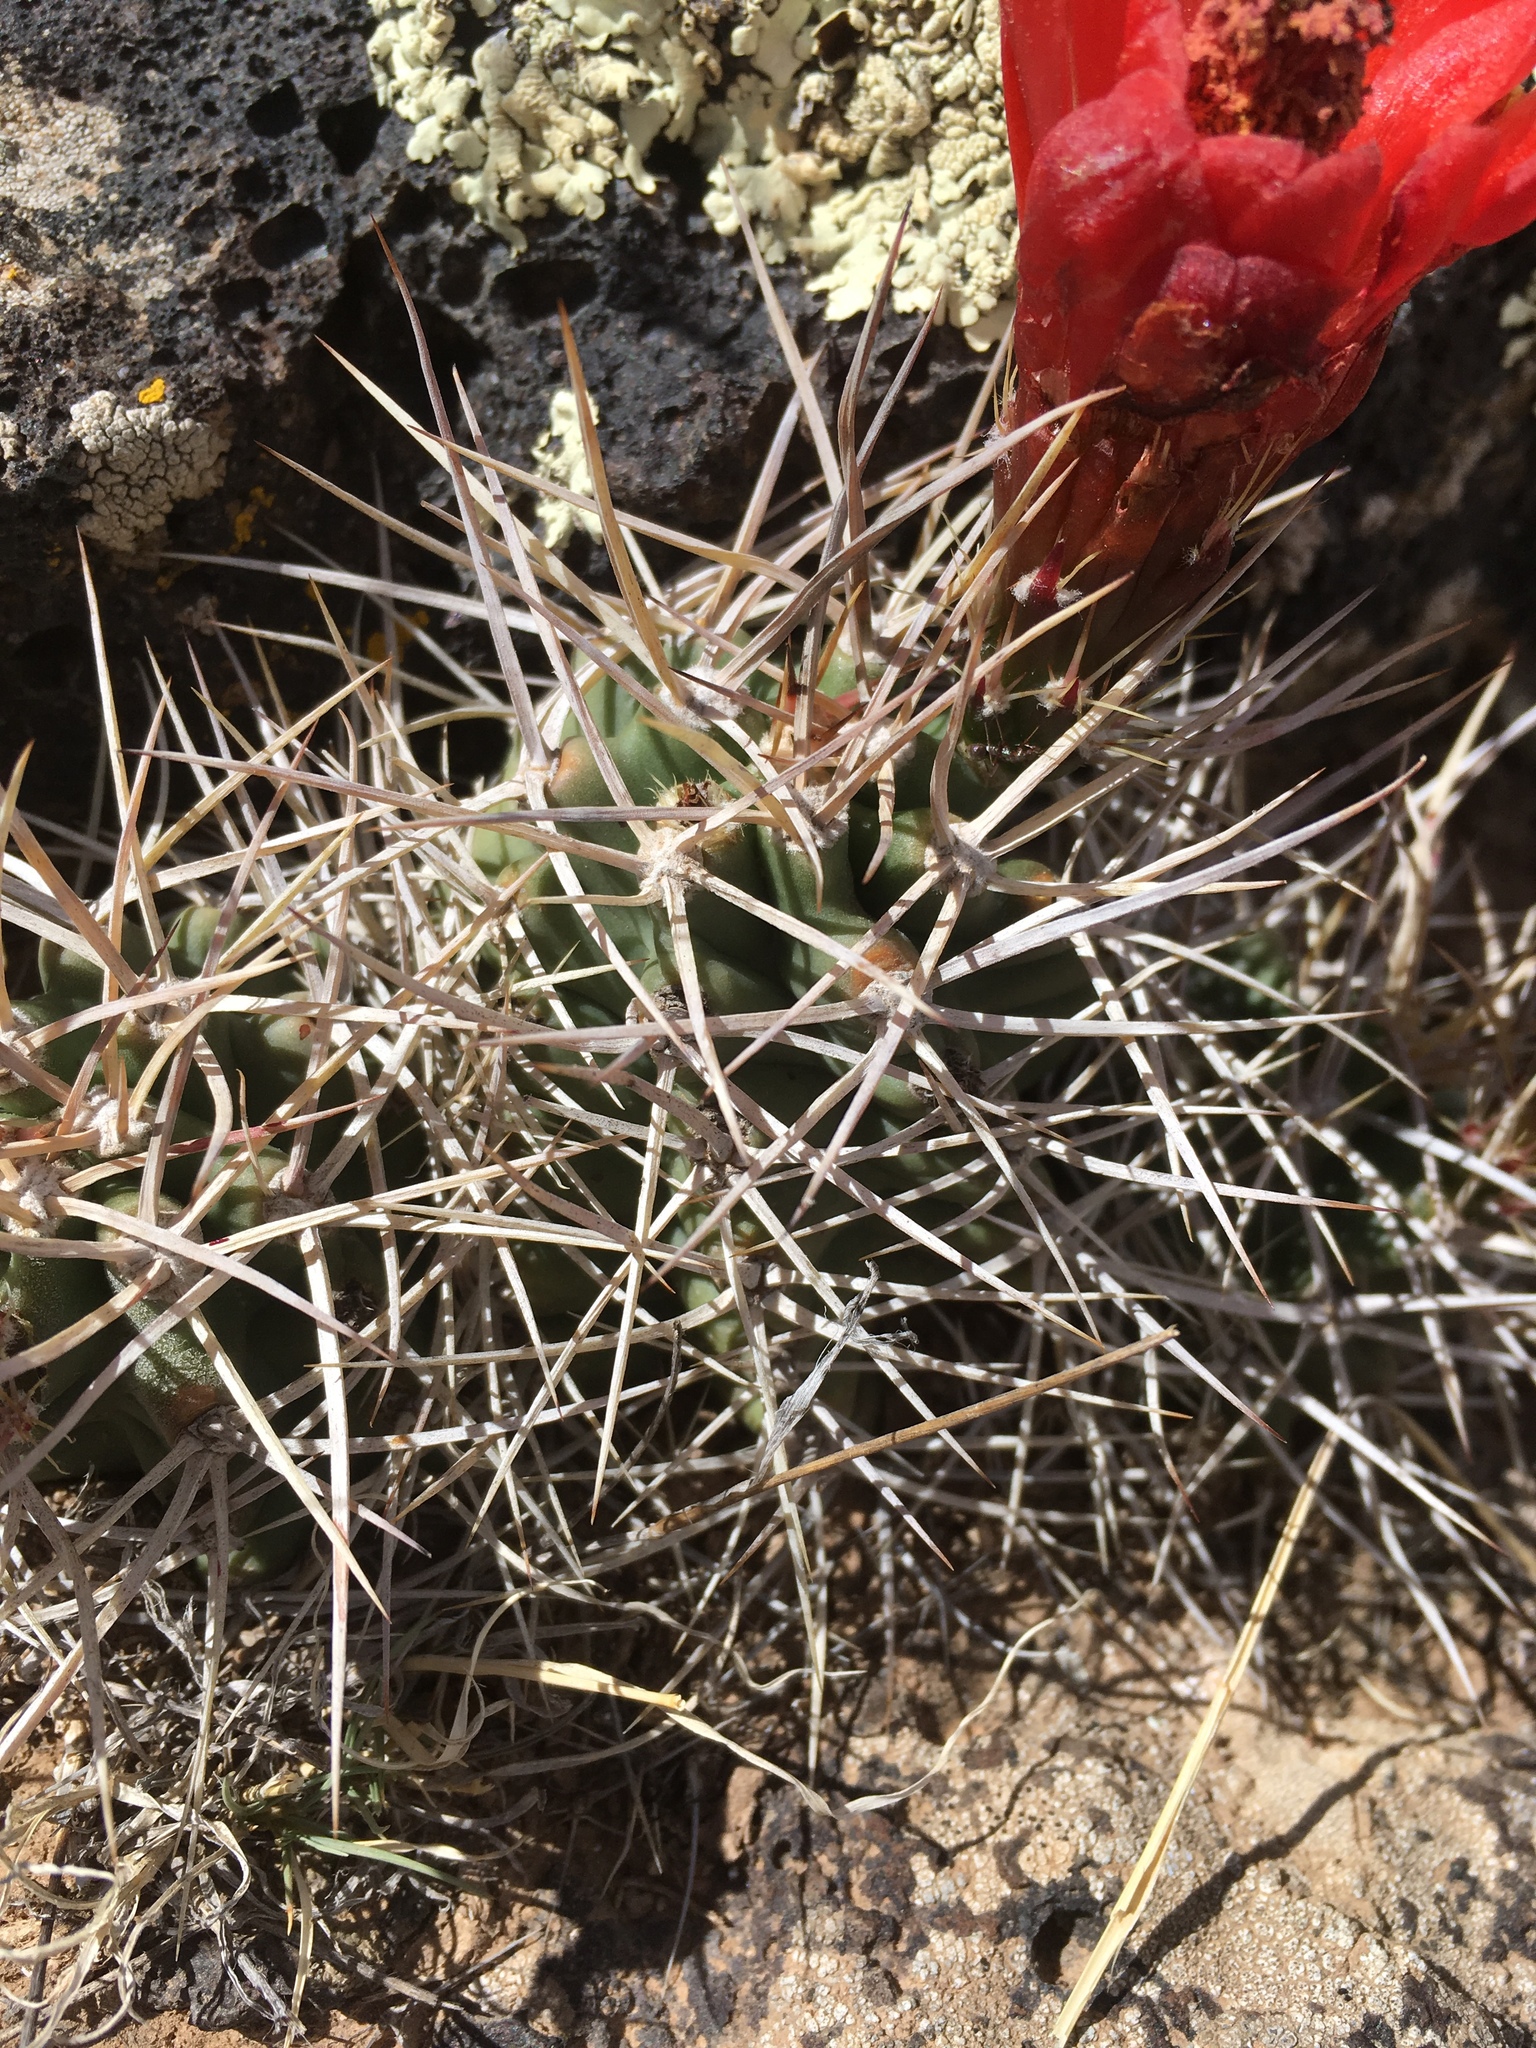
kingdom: Plantae
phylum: Tracheophyta
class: Magnoliopsida
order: Caryophyllales
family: Cactaceae
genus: Echinocereus
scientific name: Echinocereus triglochidiatus
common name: Claretcup hedgehog
